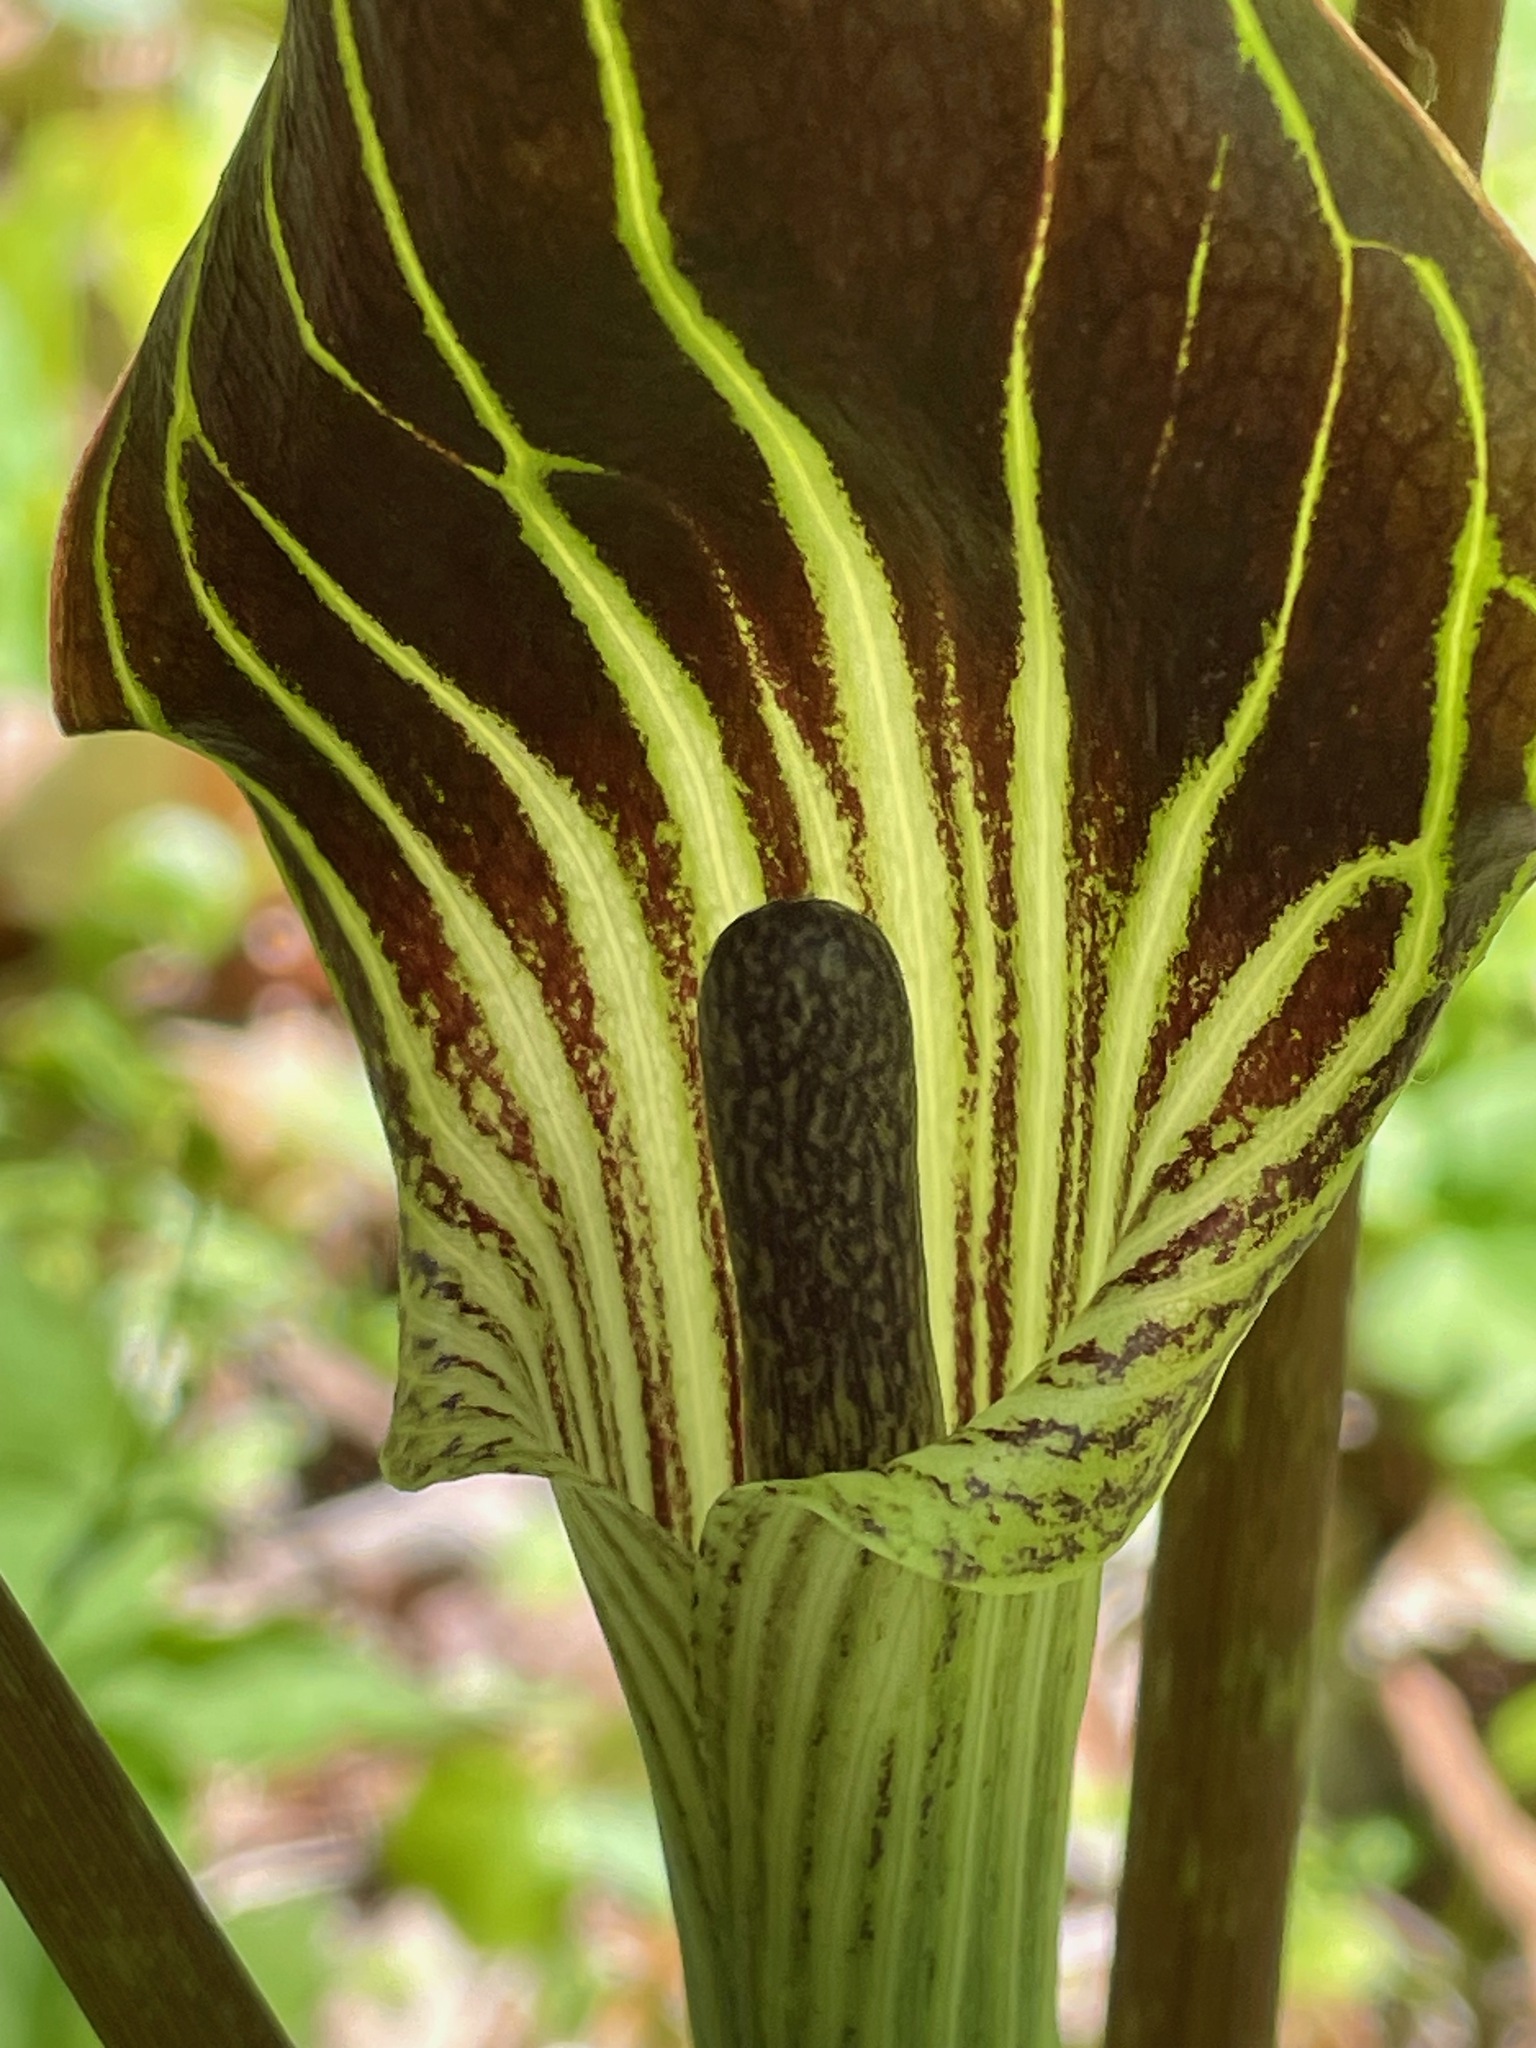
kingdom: Plantae
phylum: Tracheophyta
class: Liliopsida
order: Alismatales
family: Araceae
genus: Arisaema
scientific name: Arisaema triphyllum
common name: Jack-in-the-pulpit
